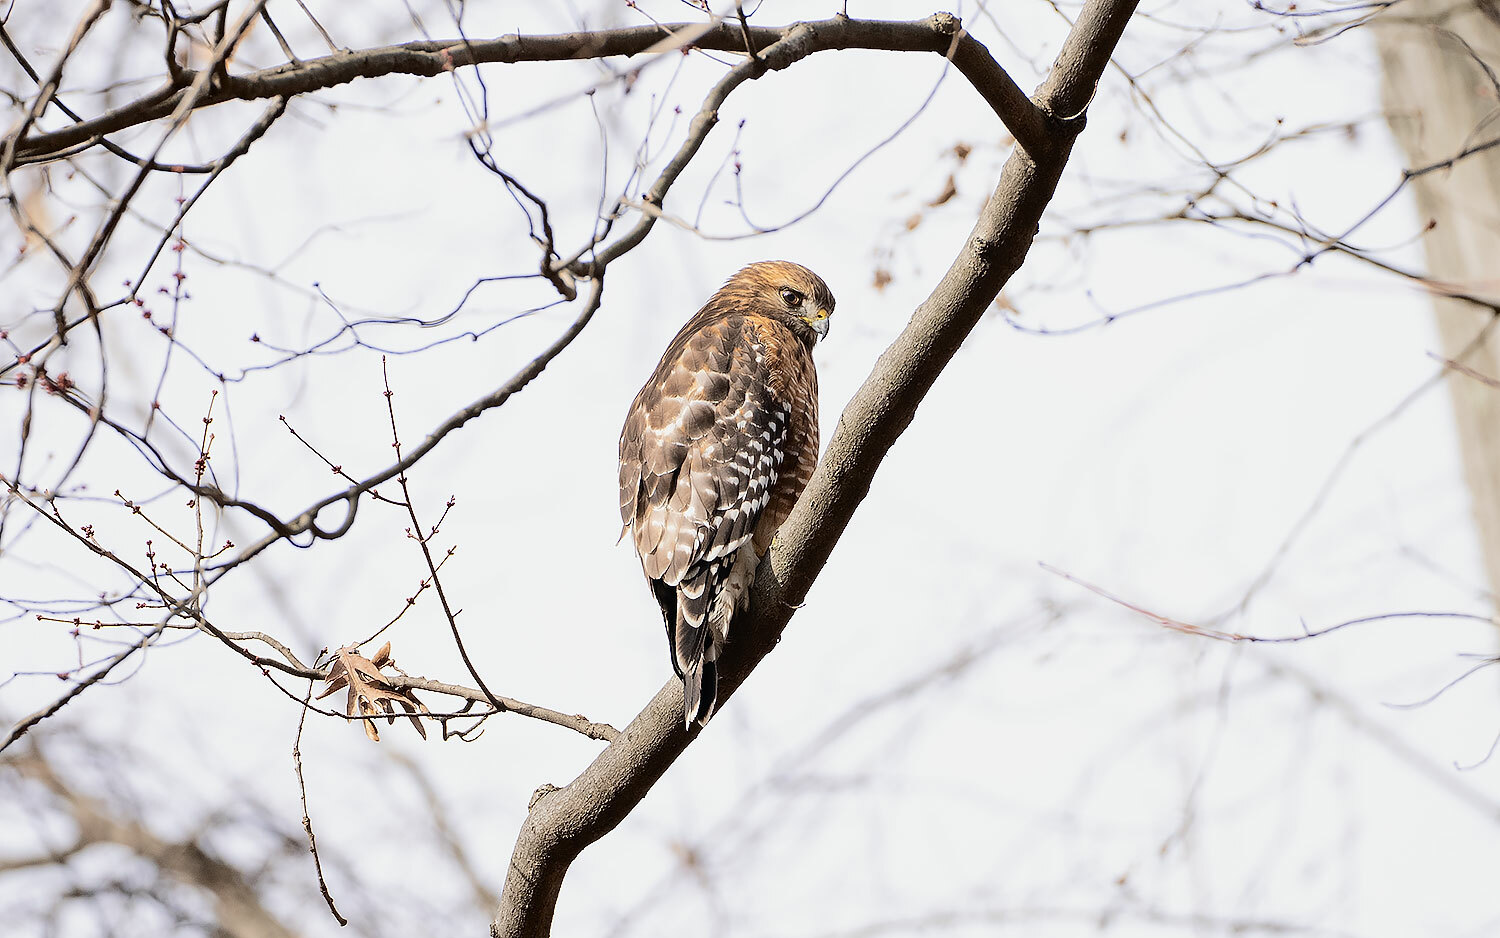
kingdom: Animalia
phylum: Chordata
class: Aves
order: Accipitriformes
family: Accipitridae
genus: Buteo
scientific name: Buteo lineatus
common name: Red-shouldered hawk
